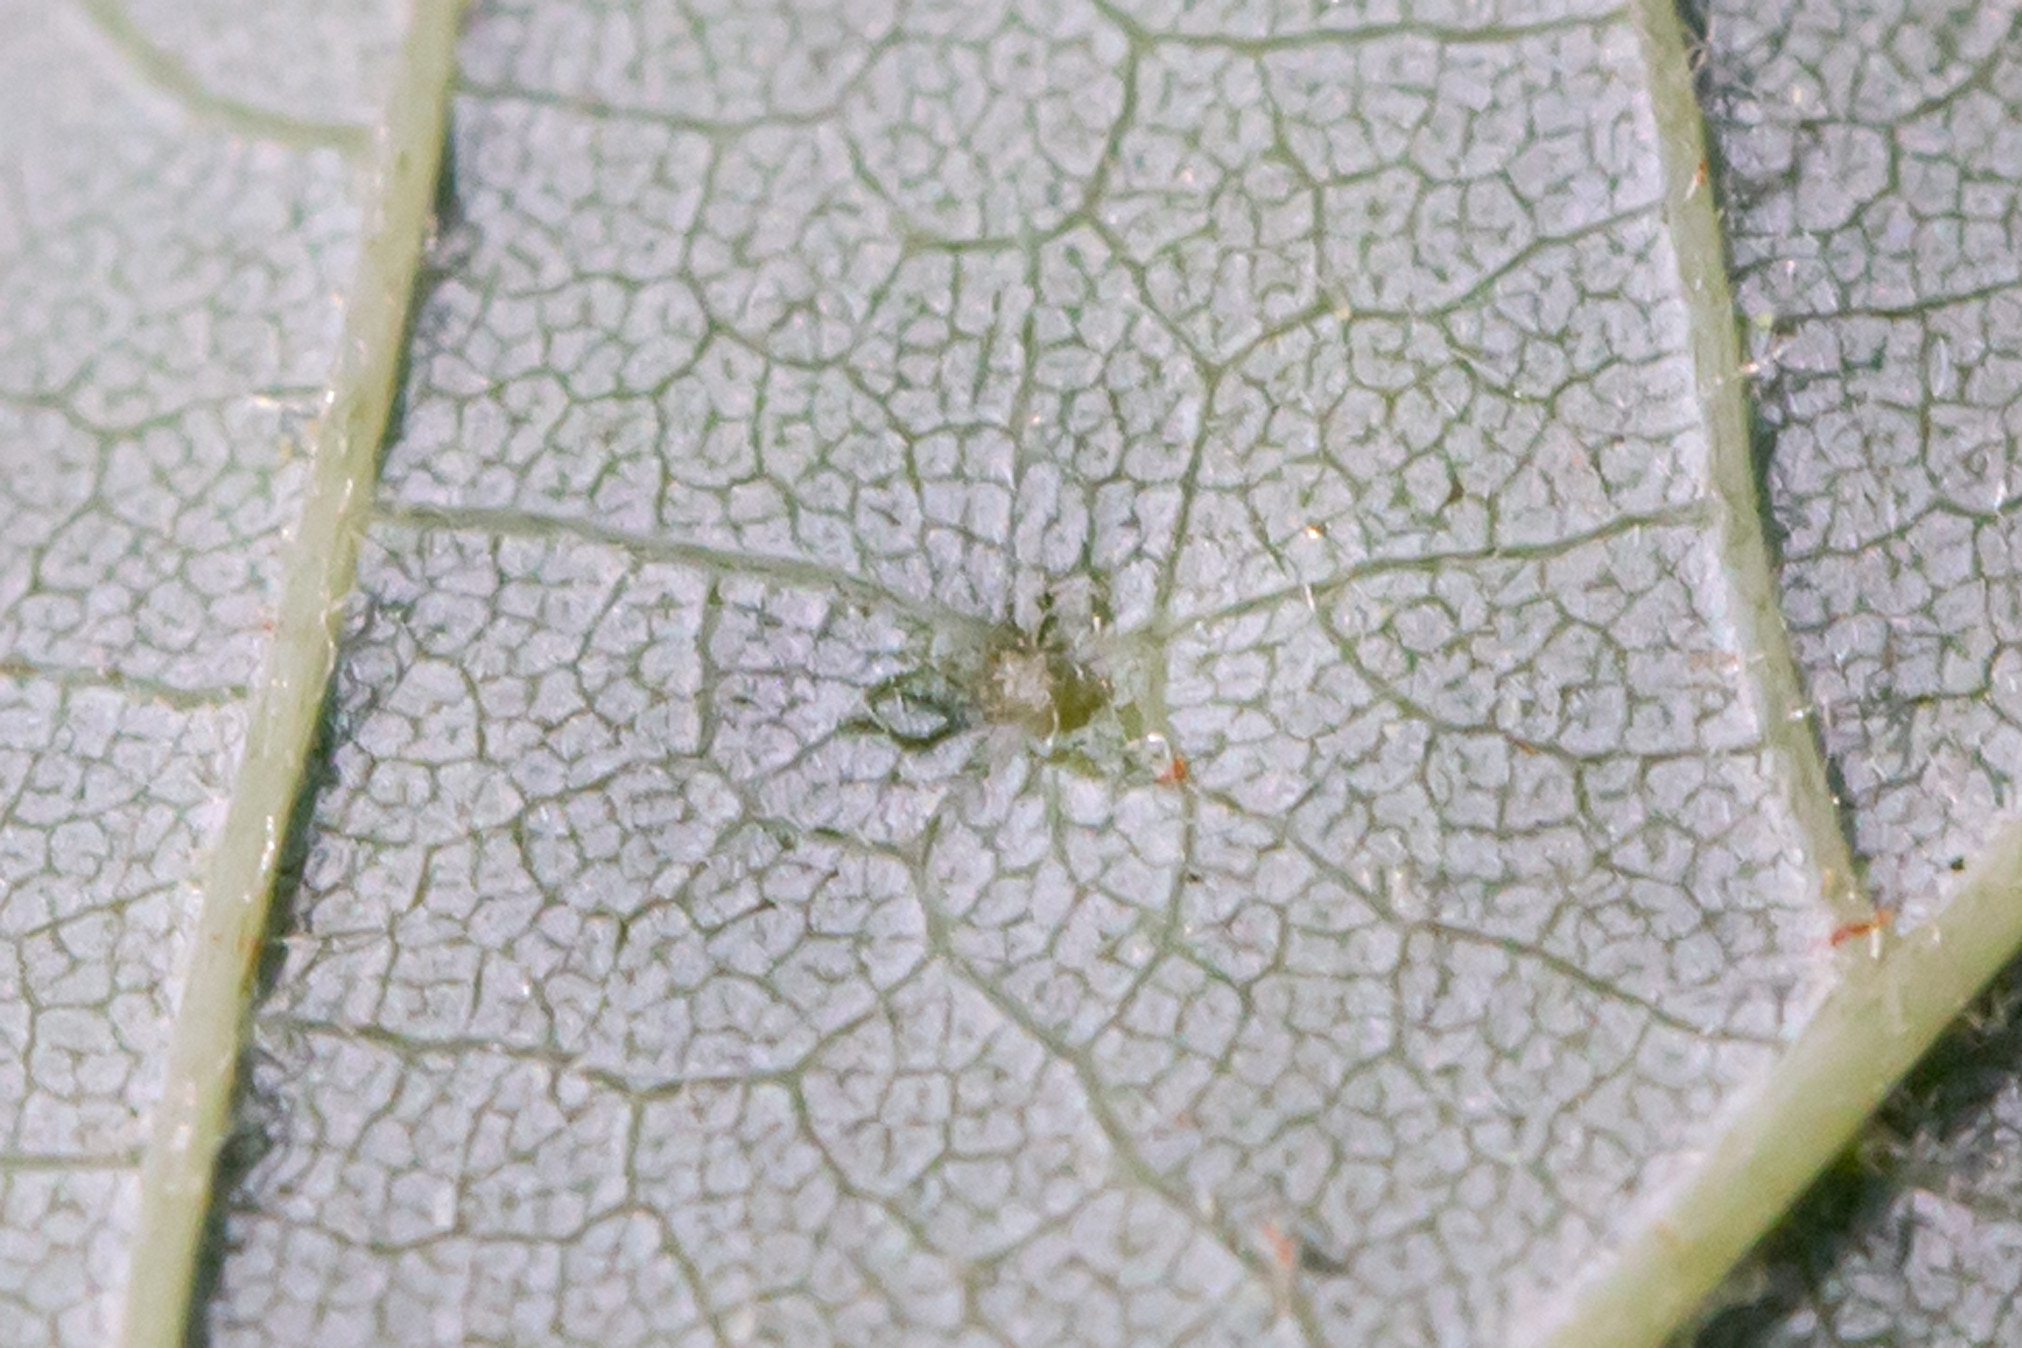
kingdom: Animalia
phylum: Arthropoda
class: Arachnida
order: Trombidiformes
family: Eriophyidae
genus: Vasates
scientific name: Vasates quadripedes
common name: Maple bladder gall mite
